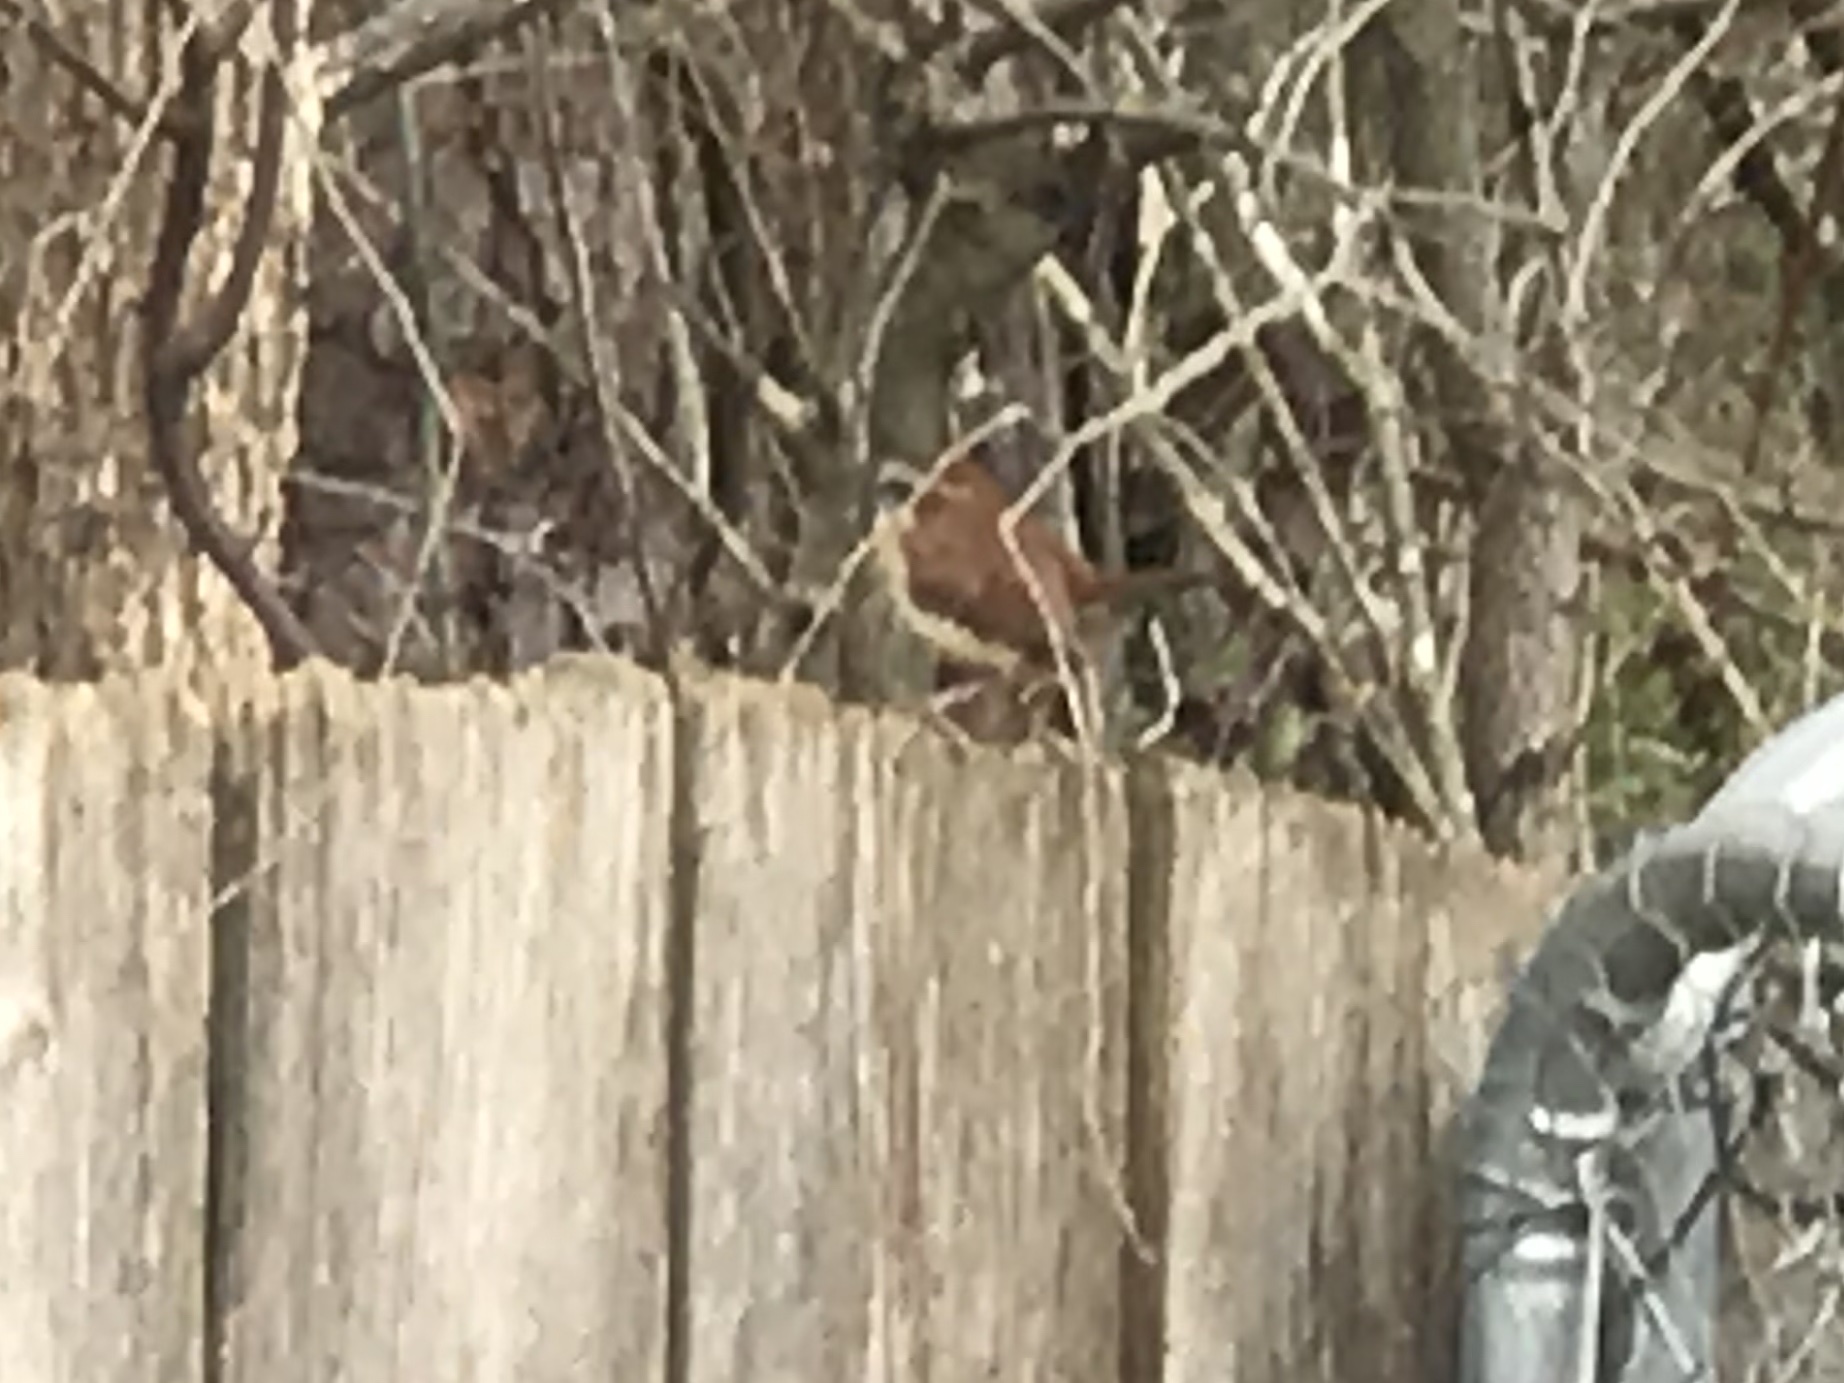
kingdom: Animalia
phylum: Chordata
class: Aves
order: Passeriformes
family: Troglodytidae
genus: Thryothorus
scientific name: Thryothorus ludovicianus
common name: Carolina wren
